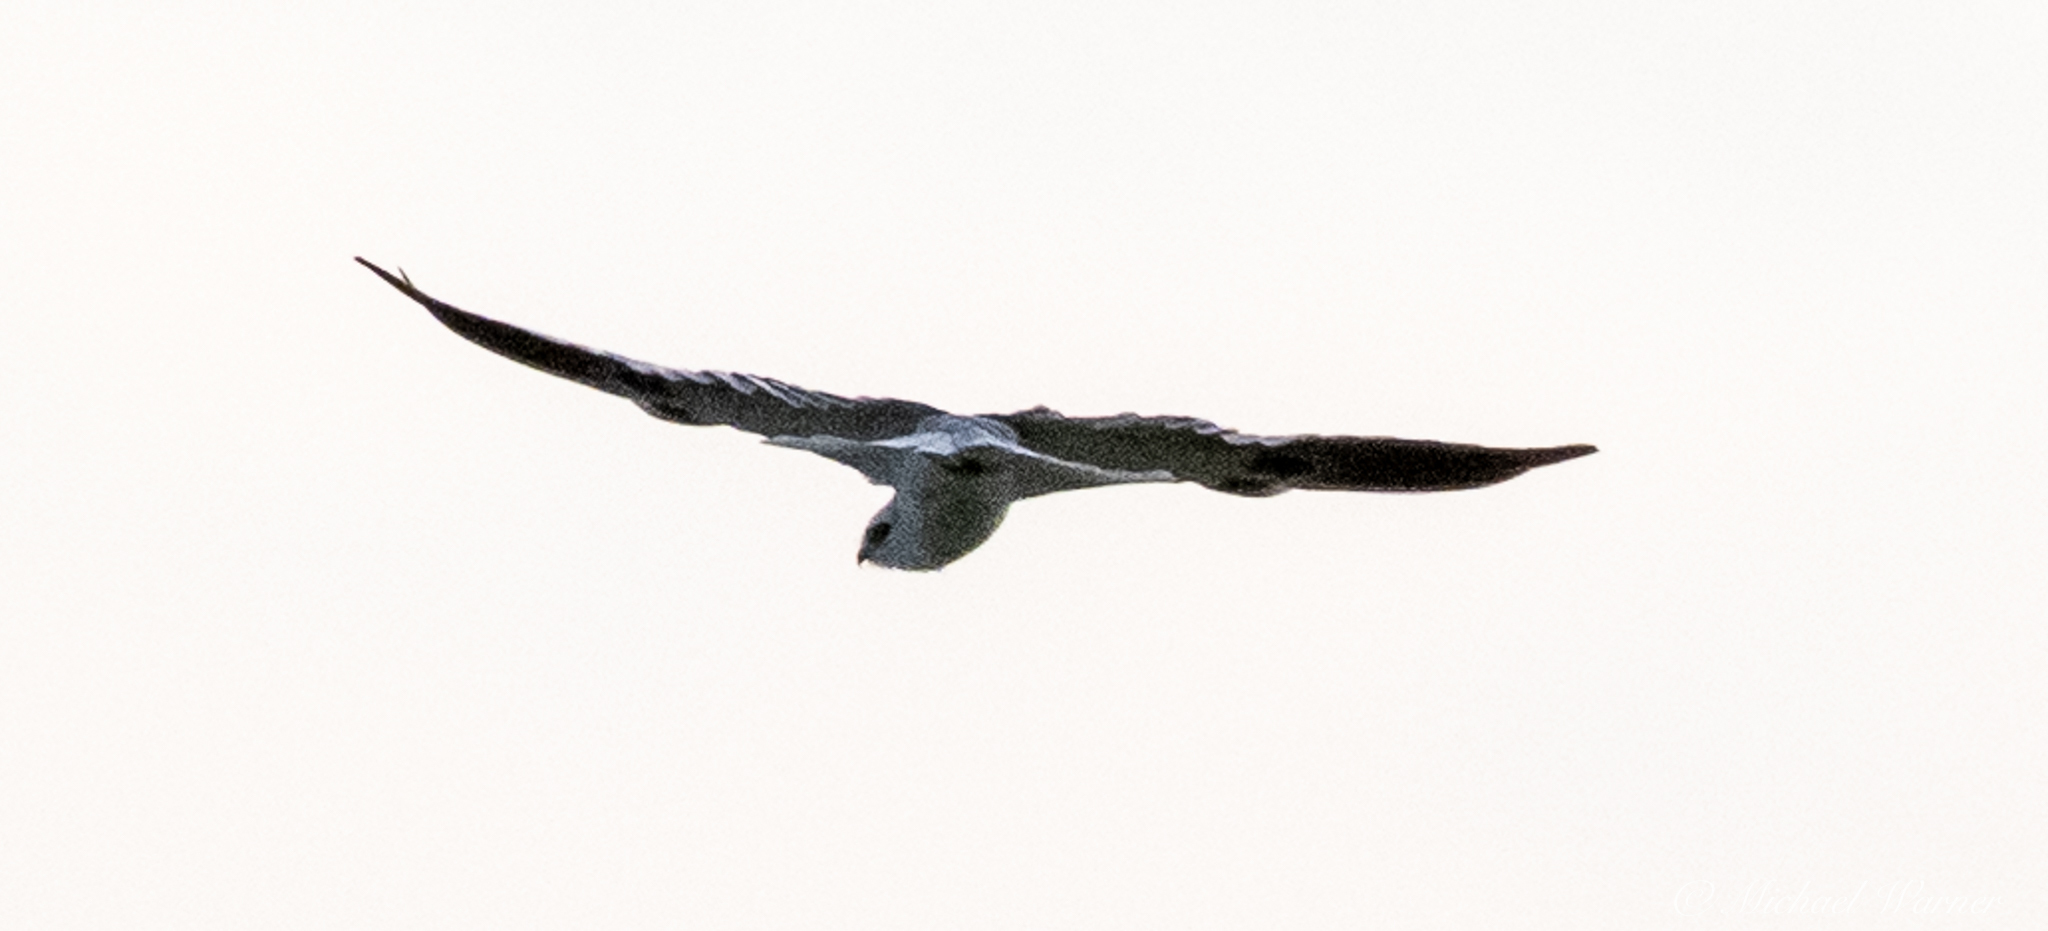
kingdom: Animalia
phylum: Chordata
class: Aves
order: Accipitriformes
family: Accipitridae
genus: Elanus
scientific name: Elanus leucurus
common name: White-tailed kite
